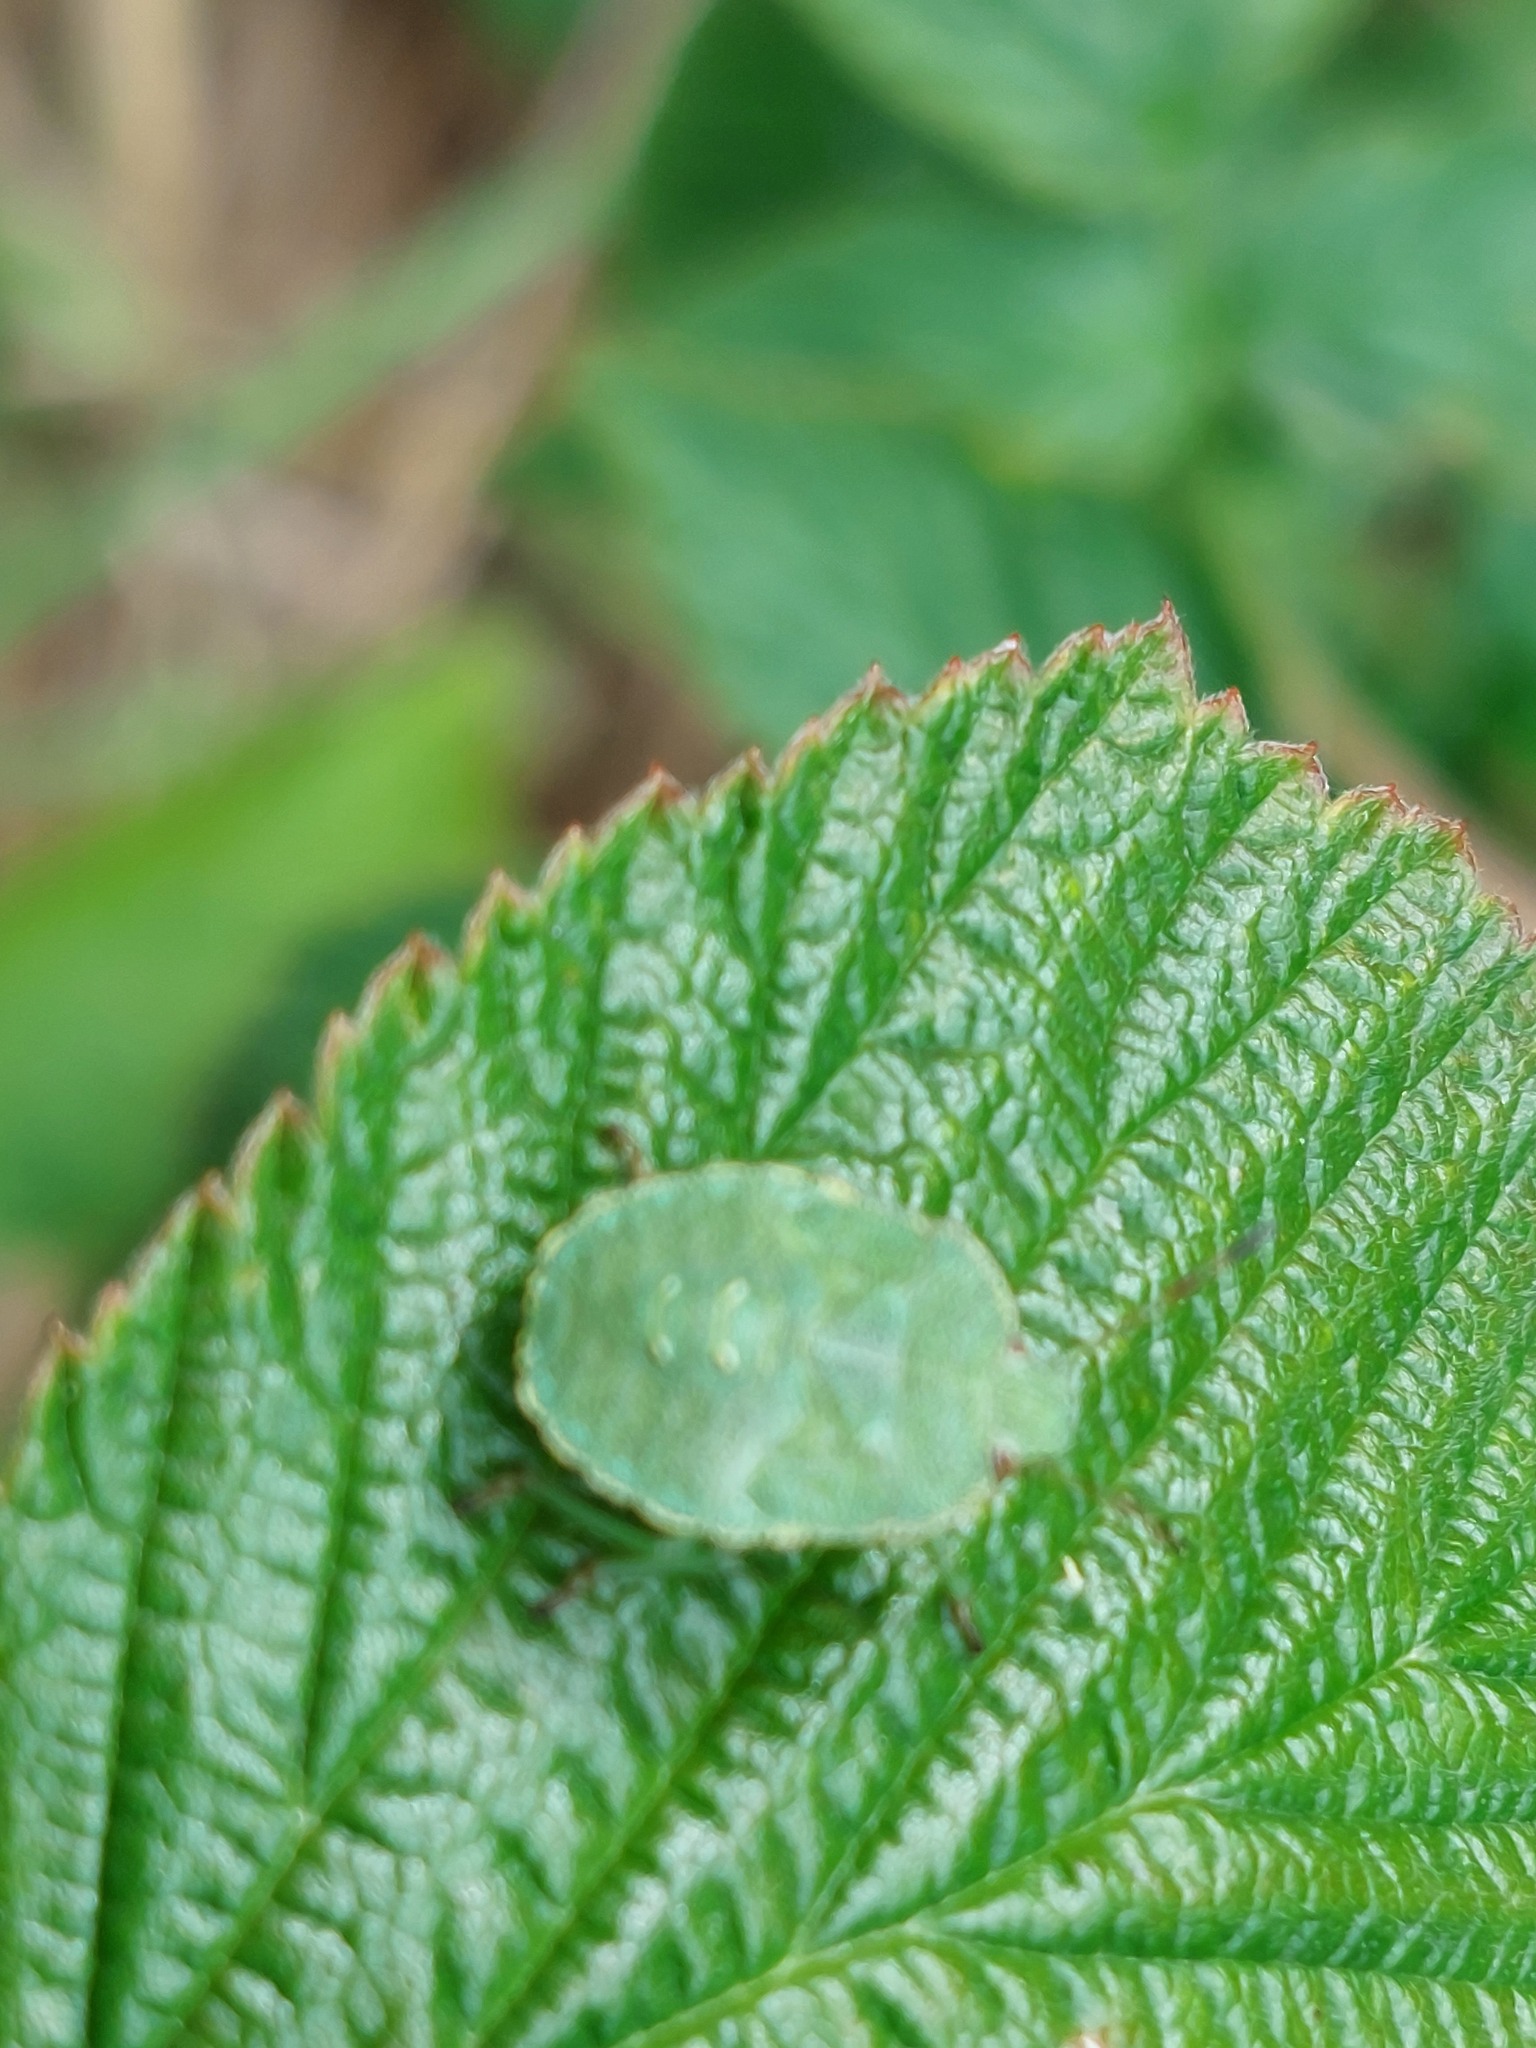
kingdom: Animalia
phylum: Arthropoda
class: Insecta
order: Hemiptera
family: Pentatomidae
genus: Palomena
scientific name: Palomena prasina
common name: Green shieldbug
